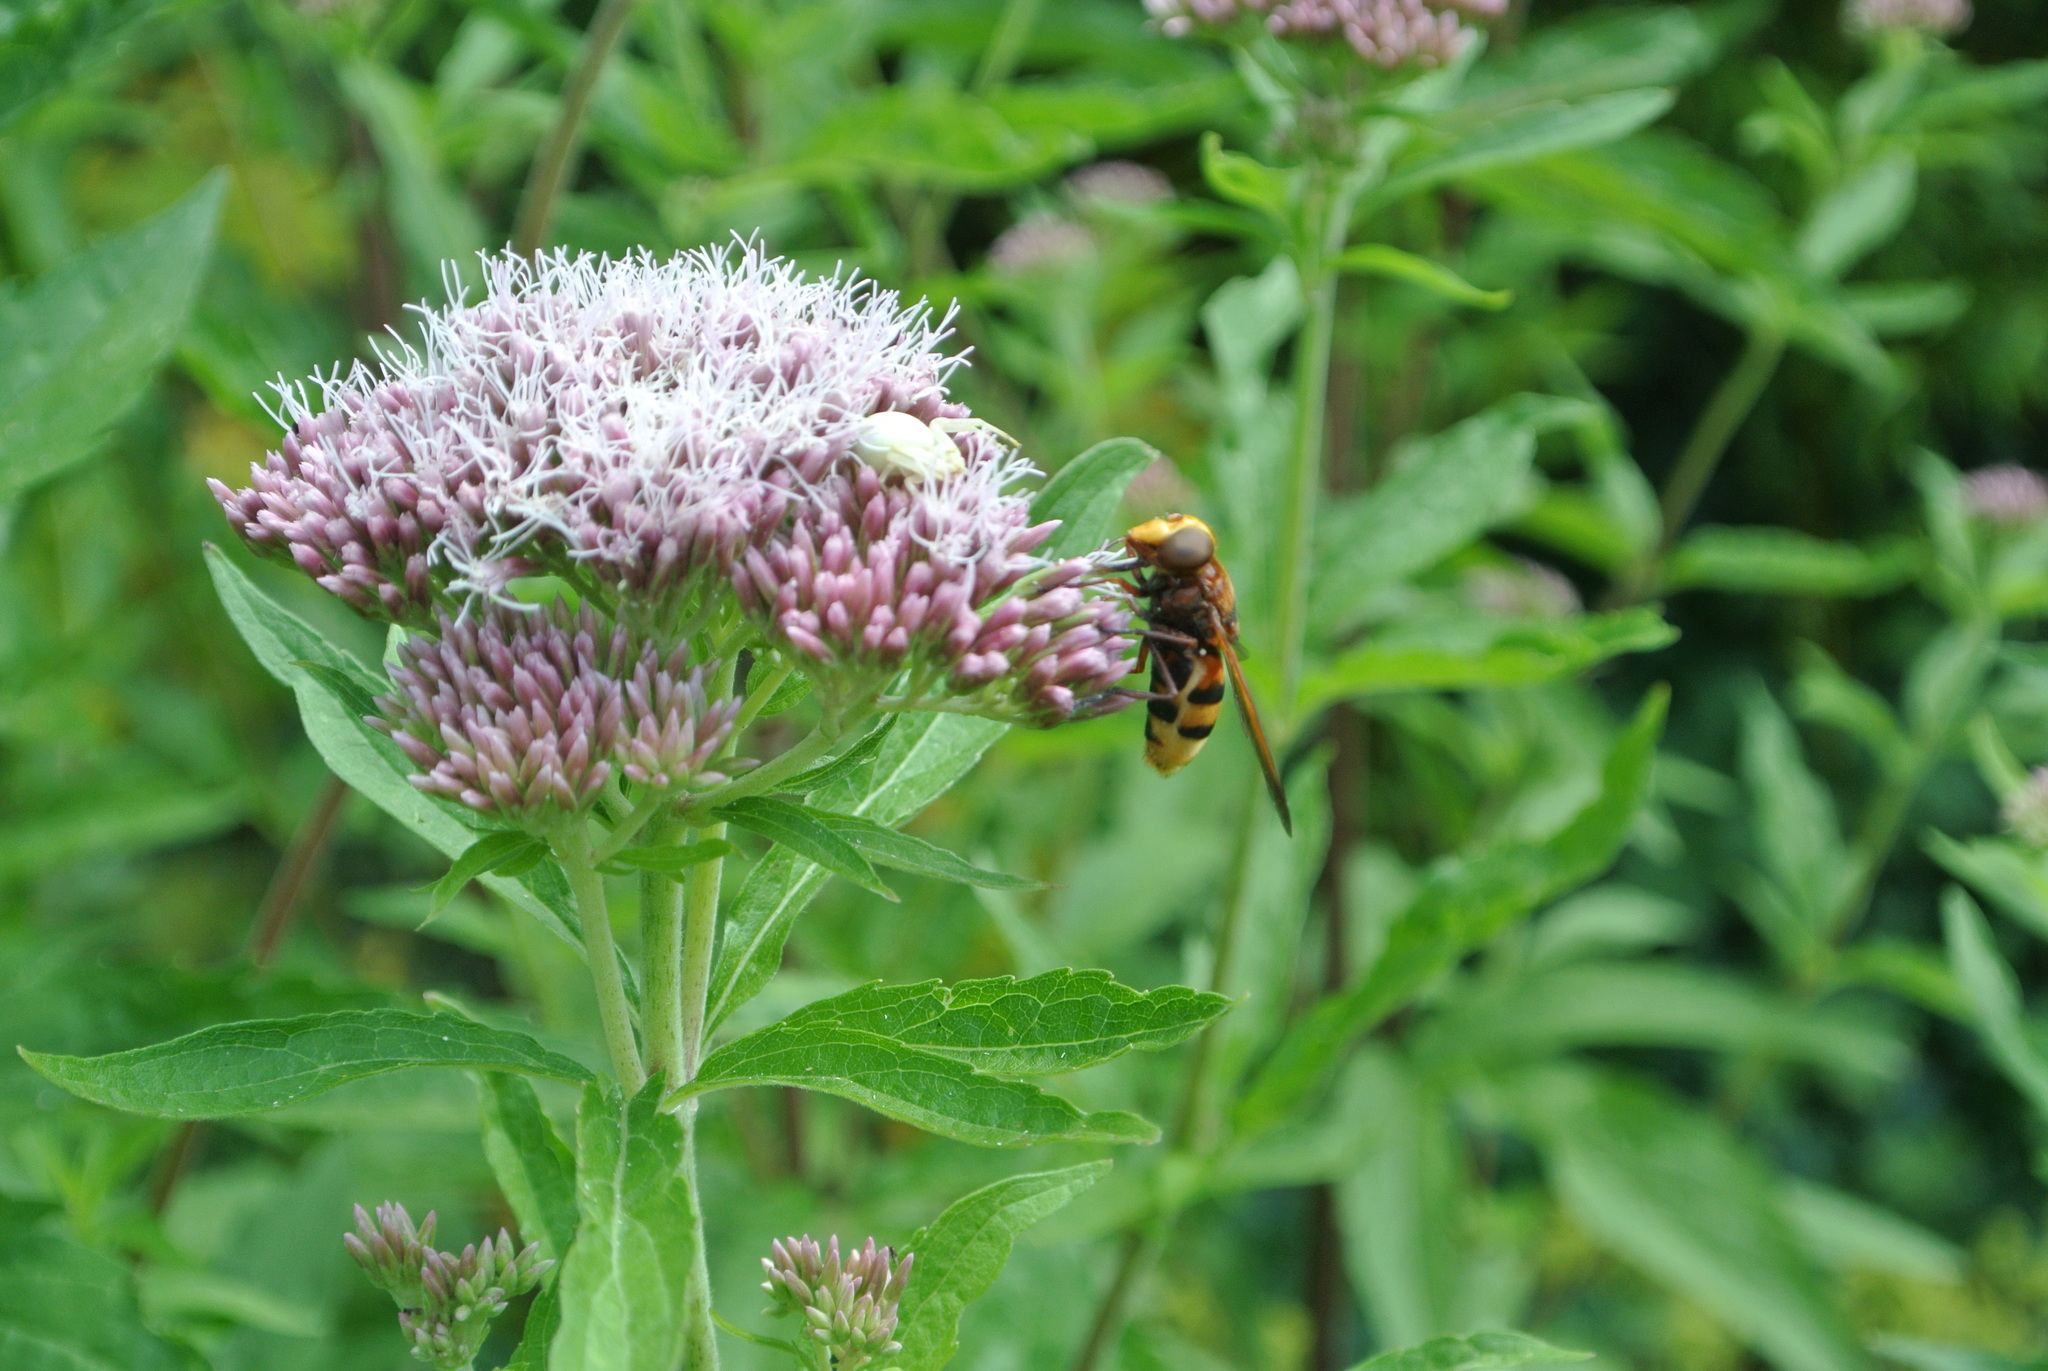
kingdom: Animalia
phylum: Arthropoda
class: Insecta
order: Diptera
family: Syrphidae
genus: Volucella
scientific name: Volucella zonaria
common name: Hornet hoverfly
